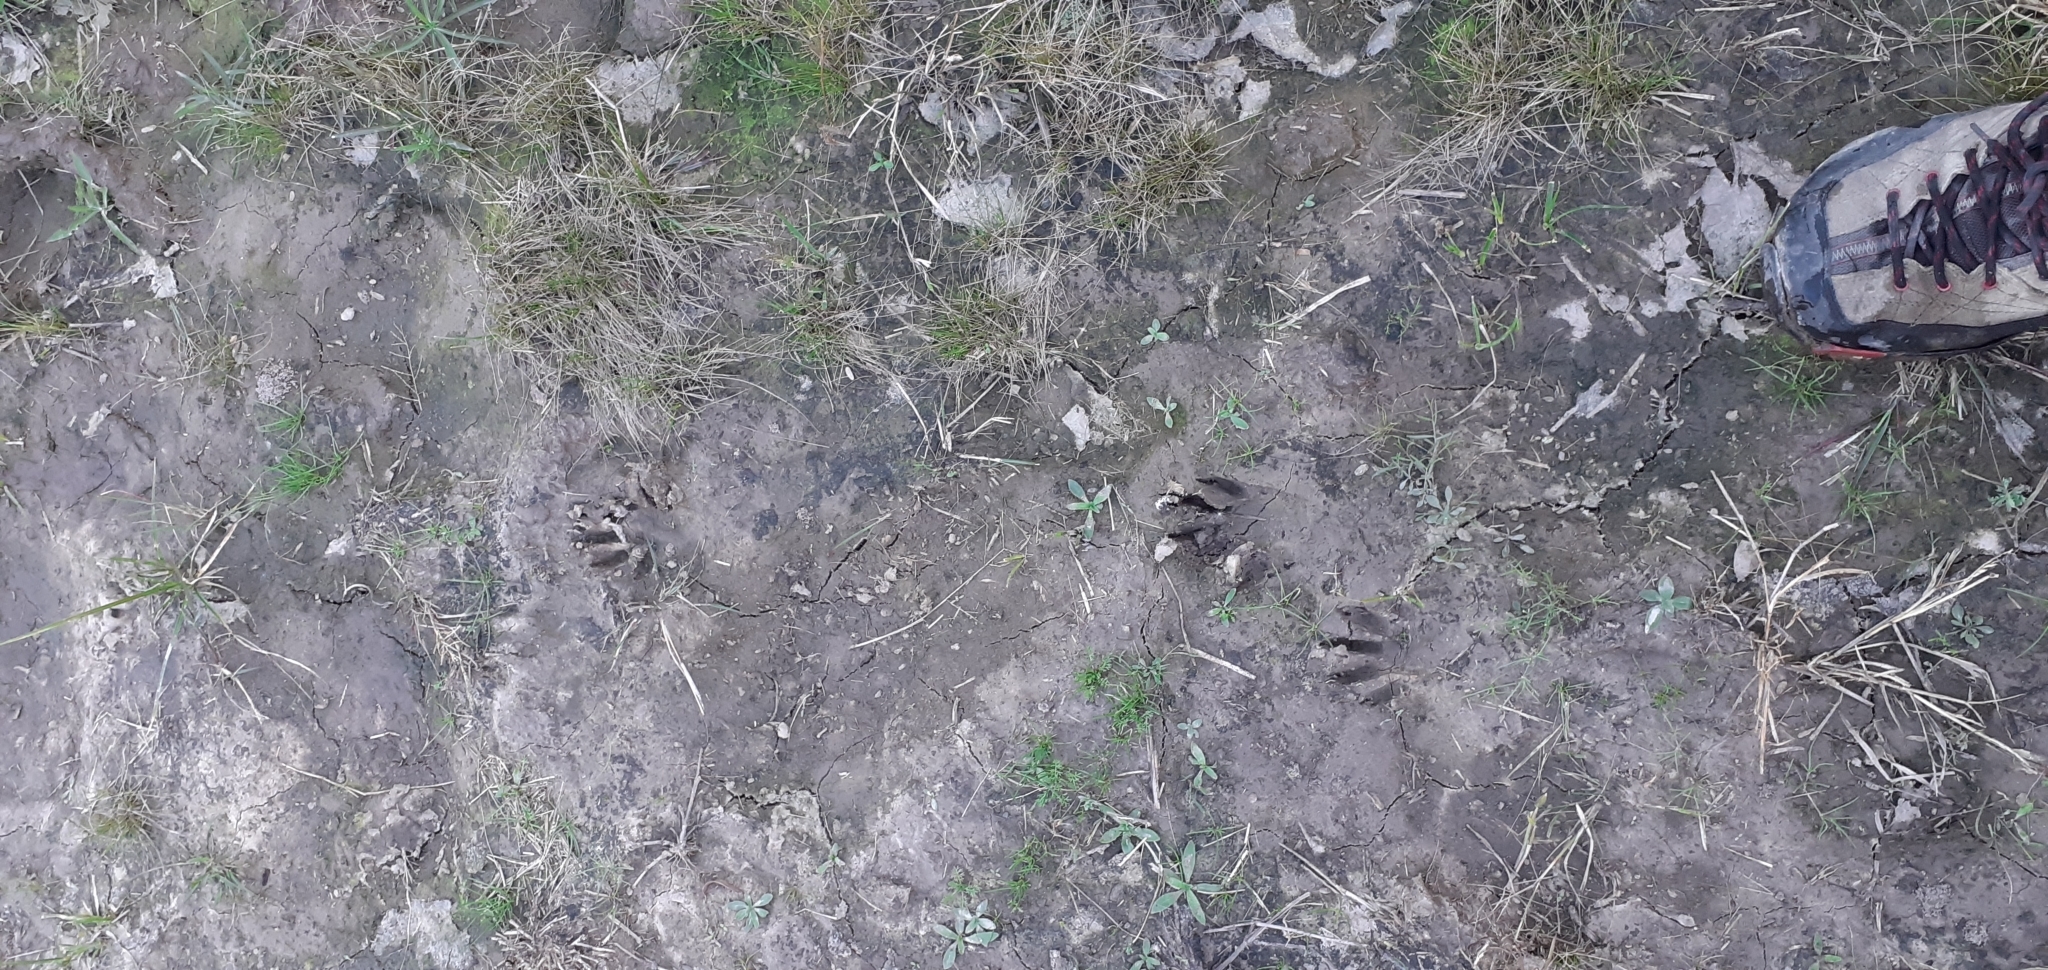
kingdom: Animalia
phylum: Chordata
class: Mammalia
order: Carnivora
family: Procyonidae
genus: Procyon
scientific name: Procyon cancrivorus
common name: Crab-eating raccoon
